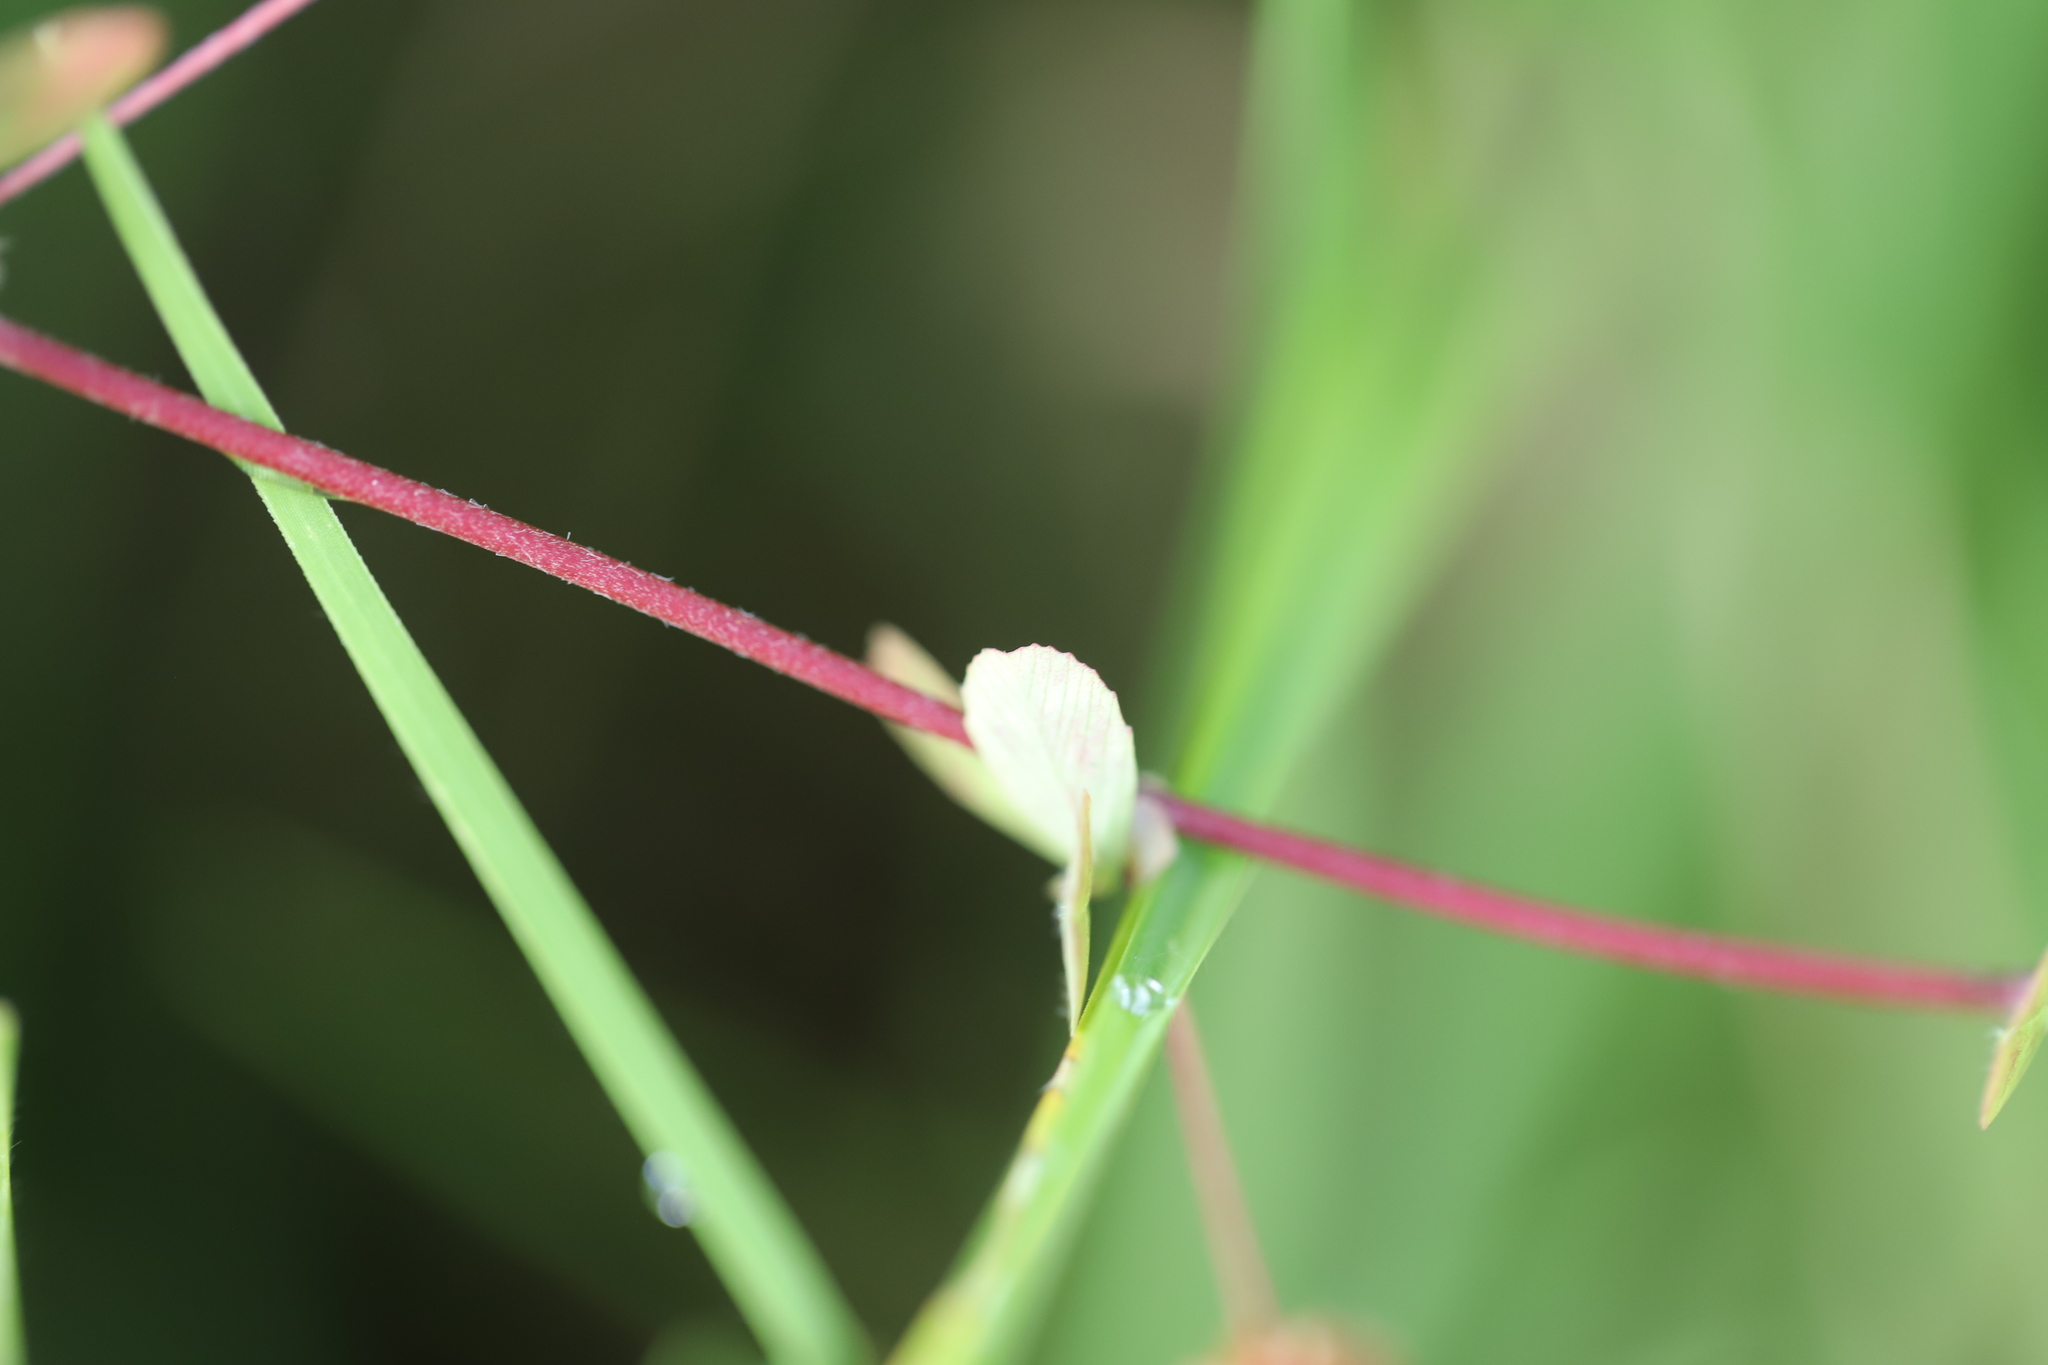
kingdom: Plantae
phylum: Tracheophyta
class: Magnoliopsida
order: Fabales
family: Fabaceae
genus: Trifolium
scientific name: Trifolium dubium
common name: Suckling clover
